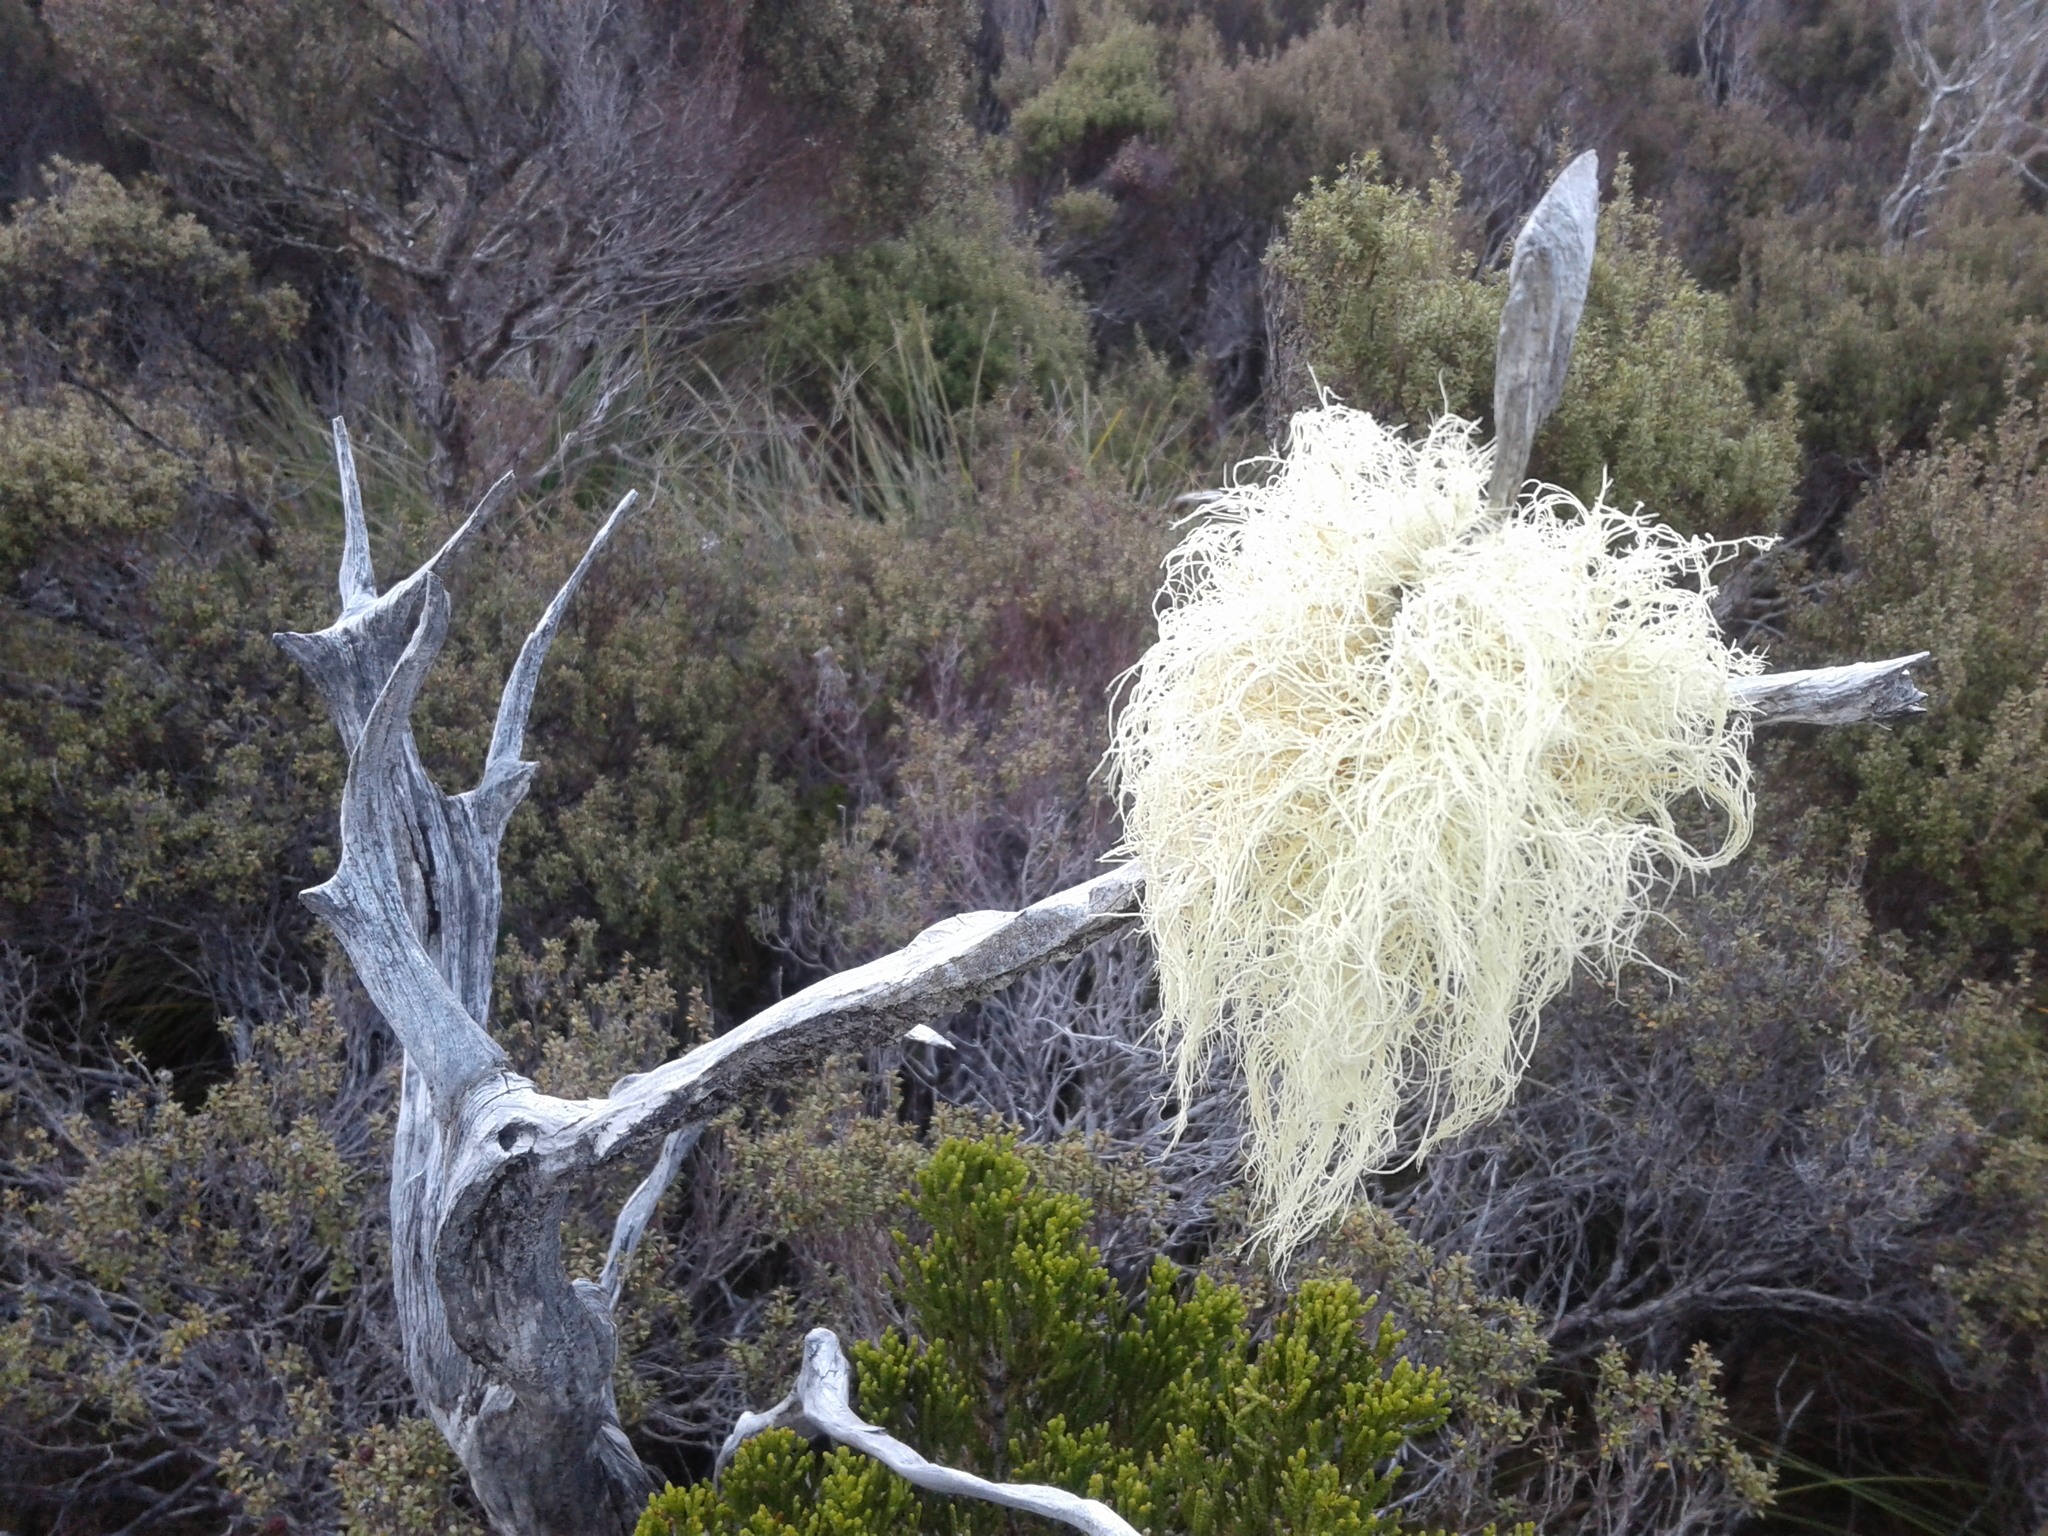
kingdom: Fungi
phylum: Ascomycota
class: Lecanoromycetes
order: Lecanorales
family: Parmeliaceae
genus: Usnea
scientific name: Usnea
